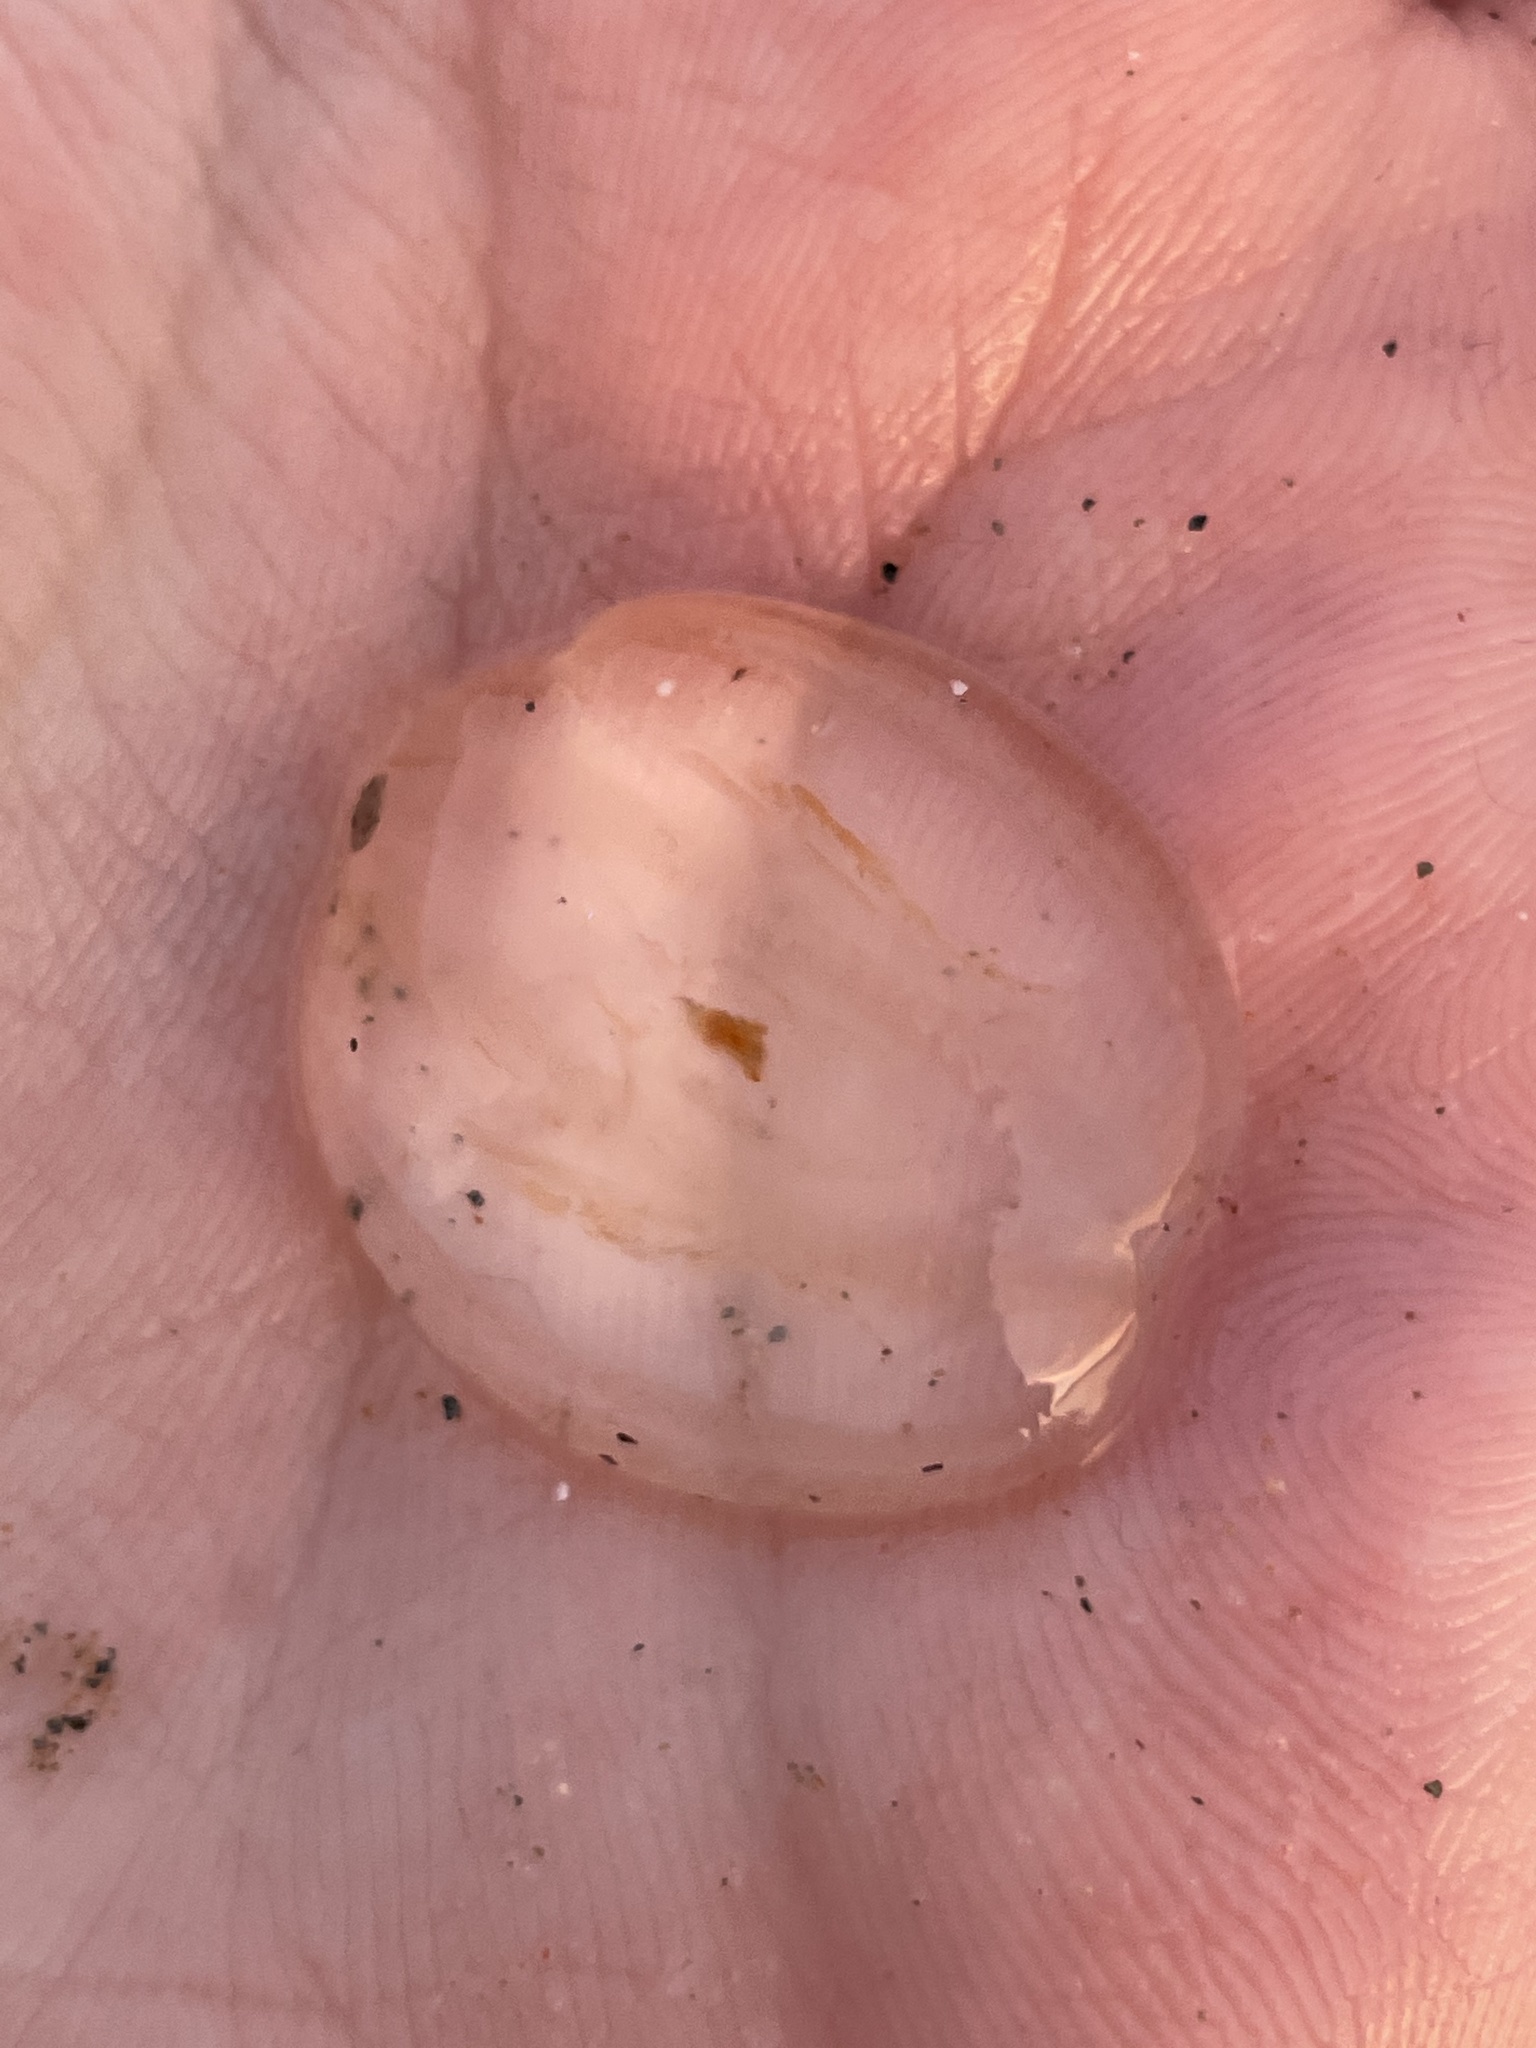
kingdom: Animalia
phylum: Ctenophora
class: Tentaculata
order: Cydippida
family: Pleurobrachiidae
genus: Pleurobrachia
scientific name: Pleurobrachia pileus
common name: Sea gooseberry
